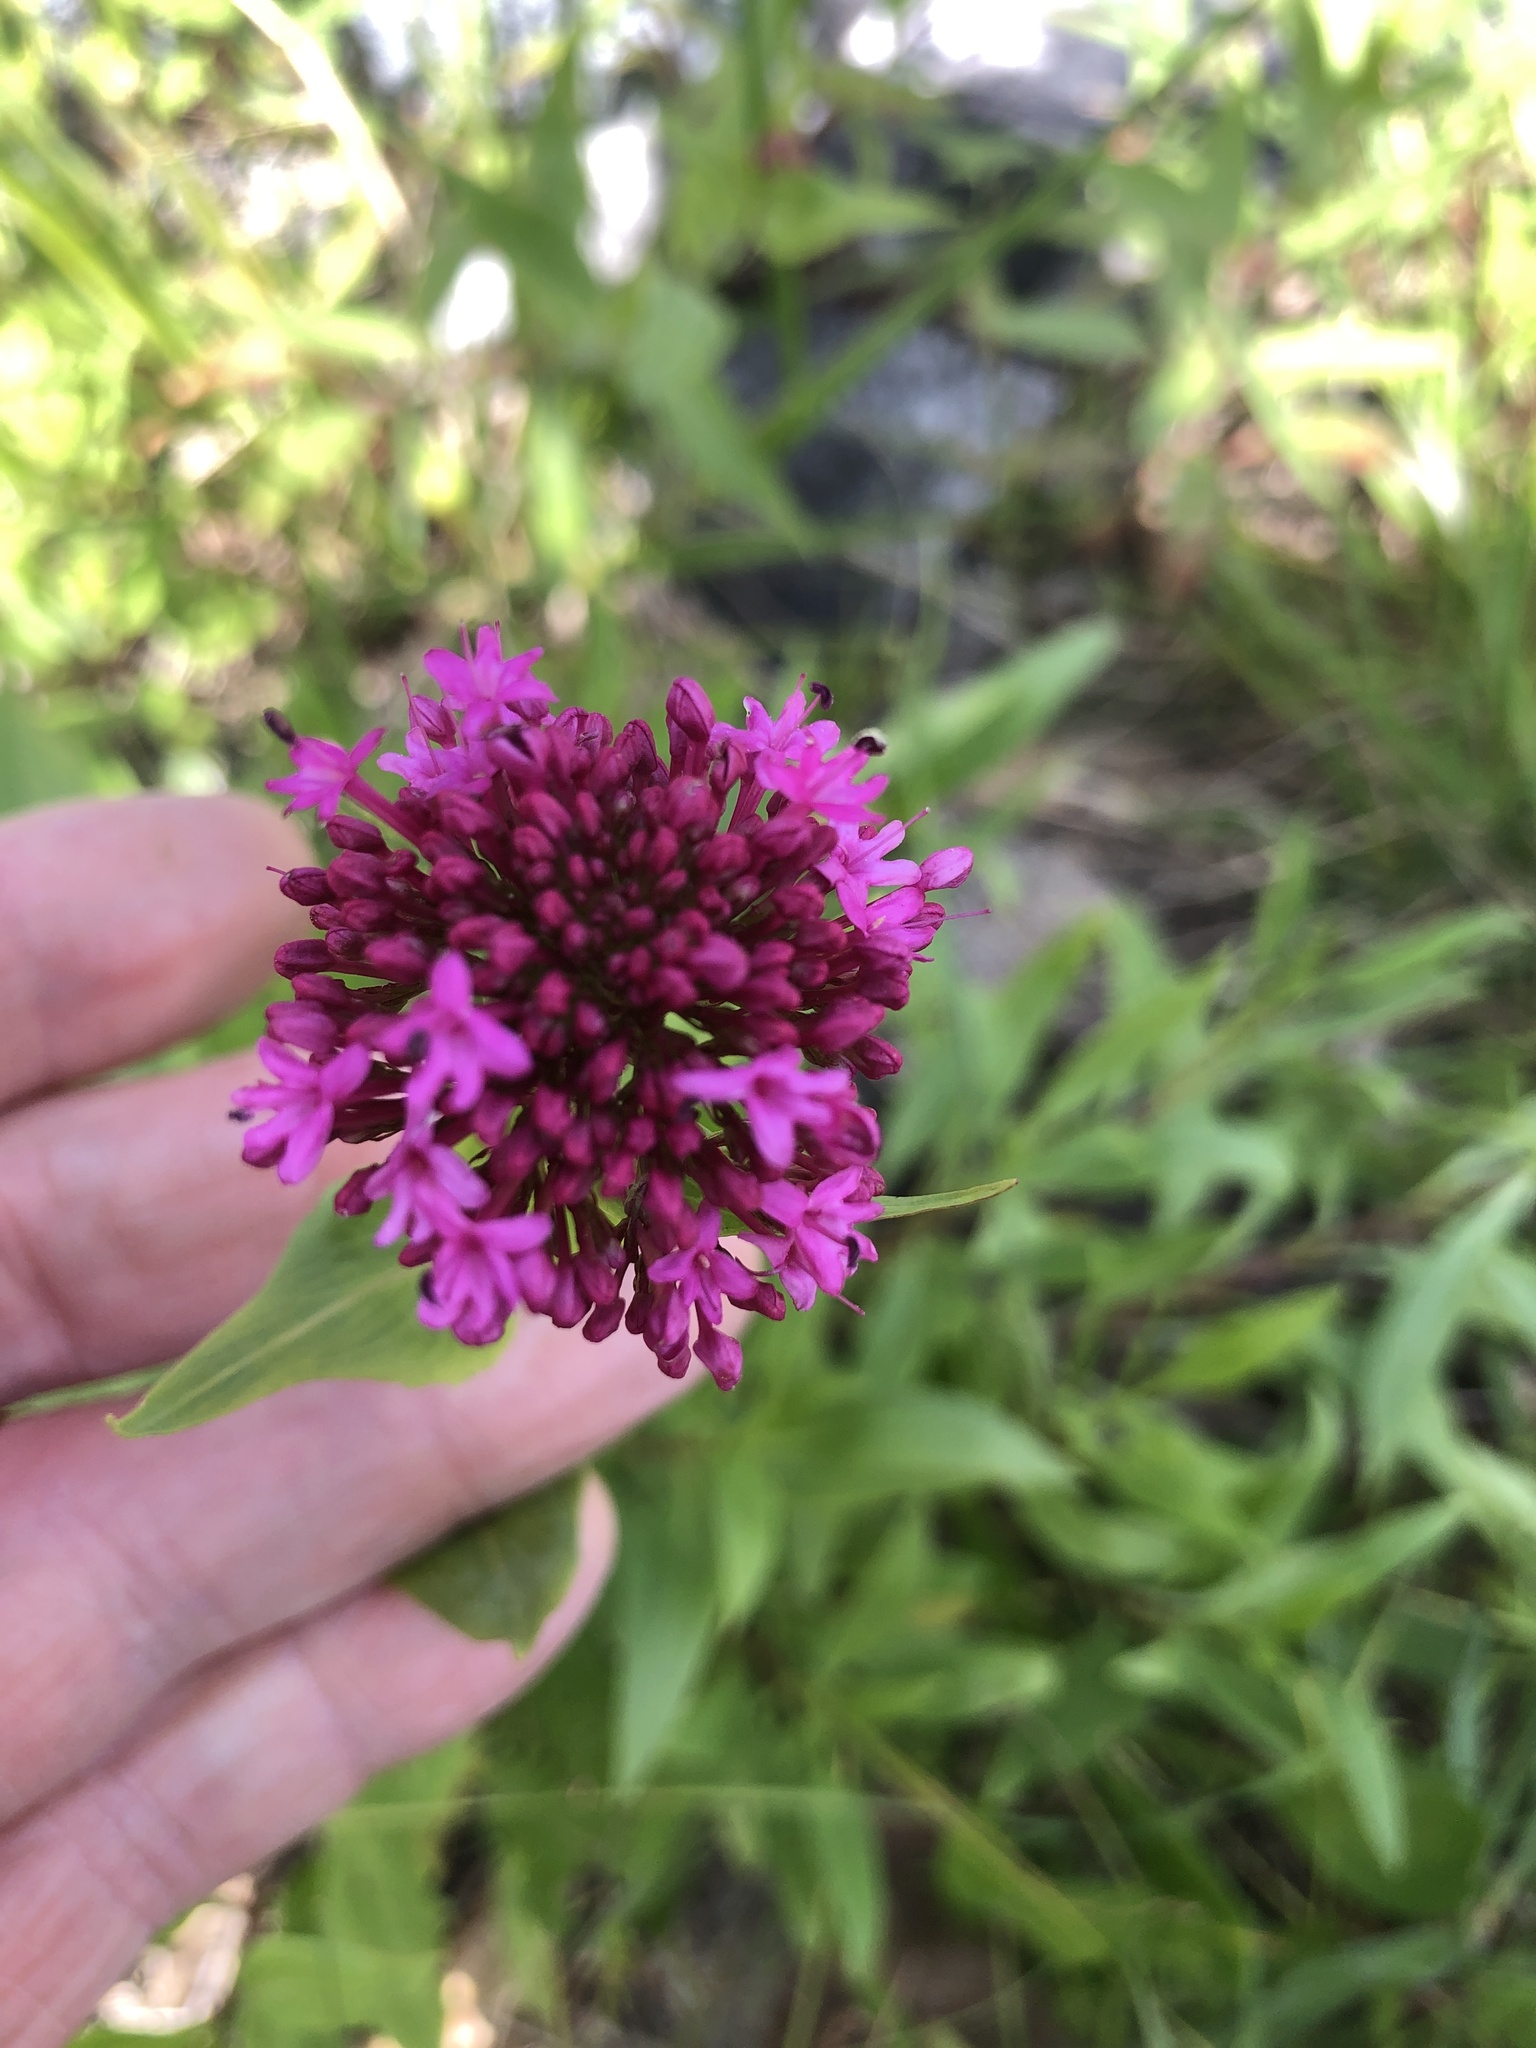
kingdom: Plantae
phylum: Tracheophyta
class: Magnoliopsida
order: Dipsacales
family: Caprifoliaceae
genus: Centranthus
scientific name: Centranthus ruber
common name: Red valerian
